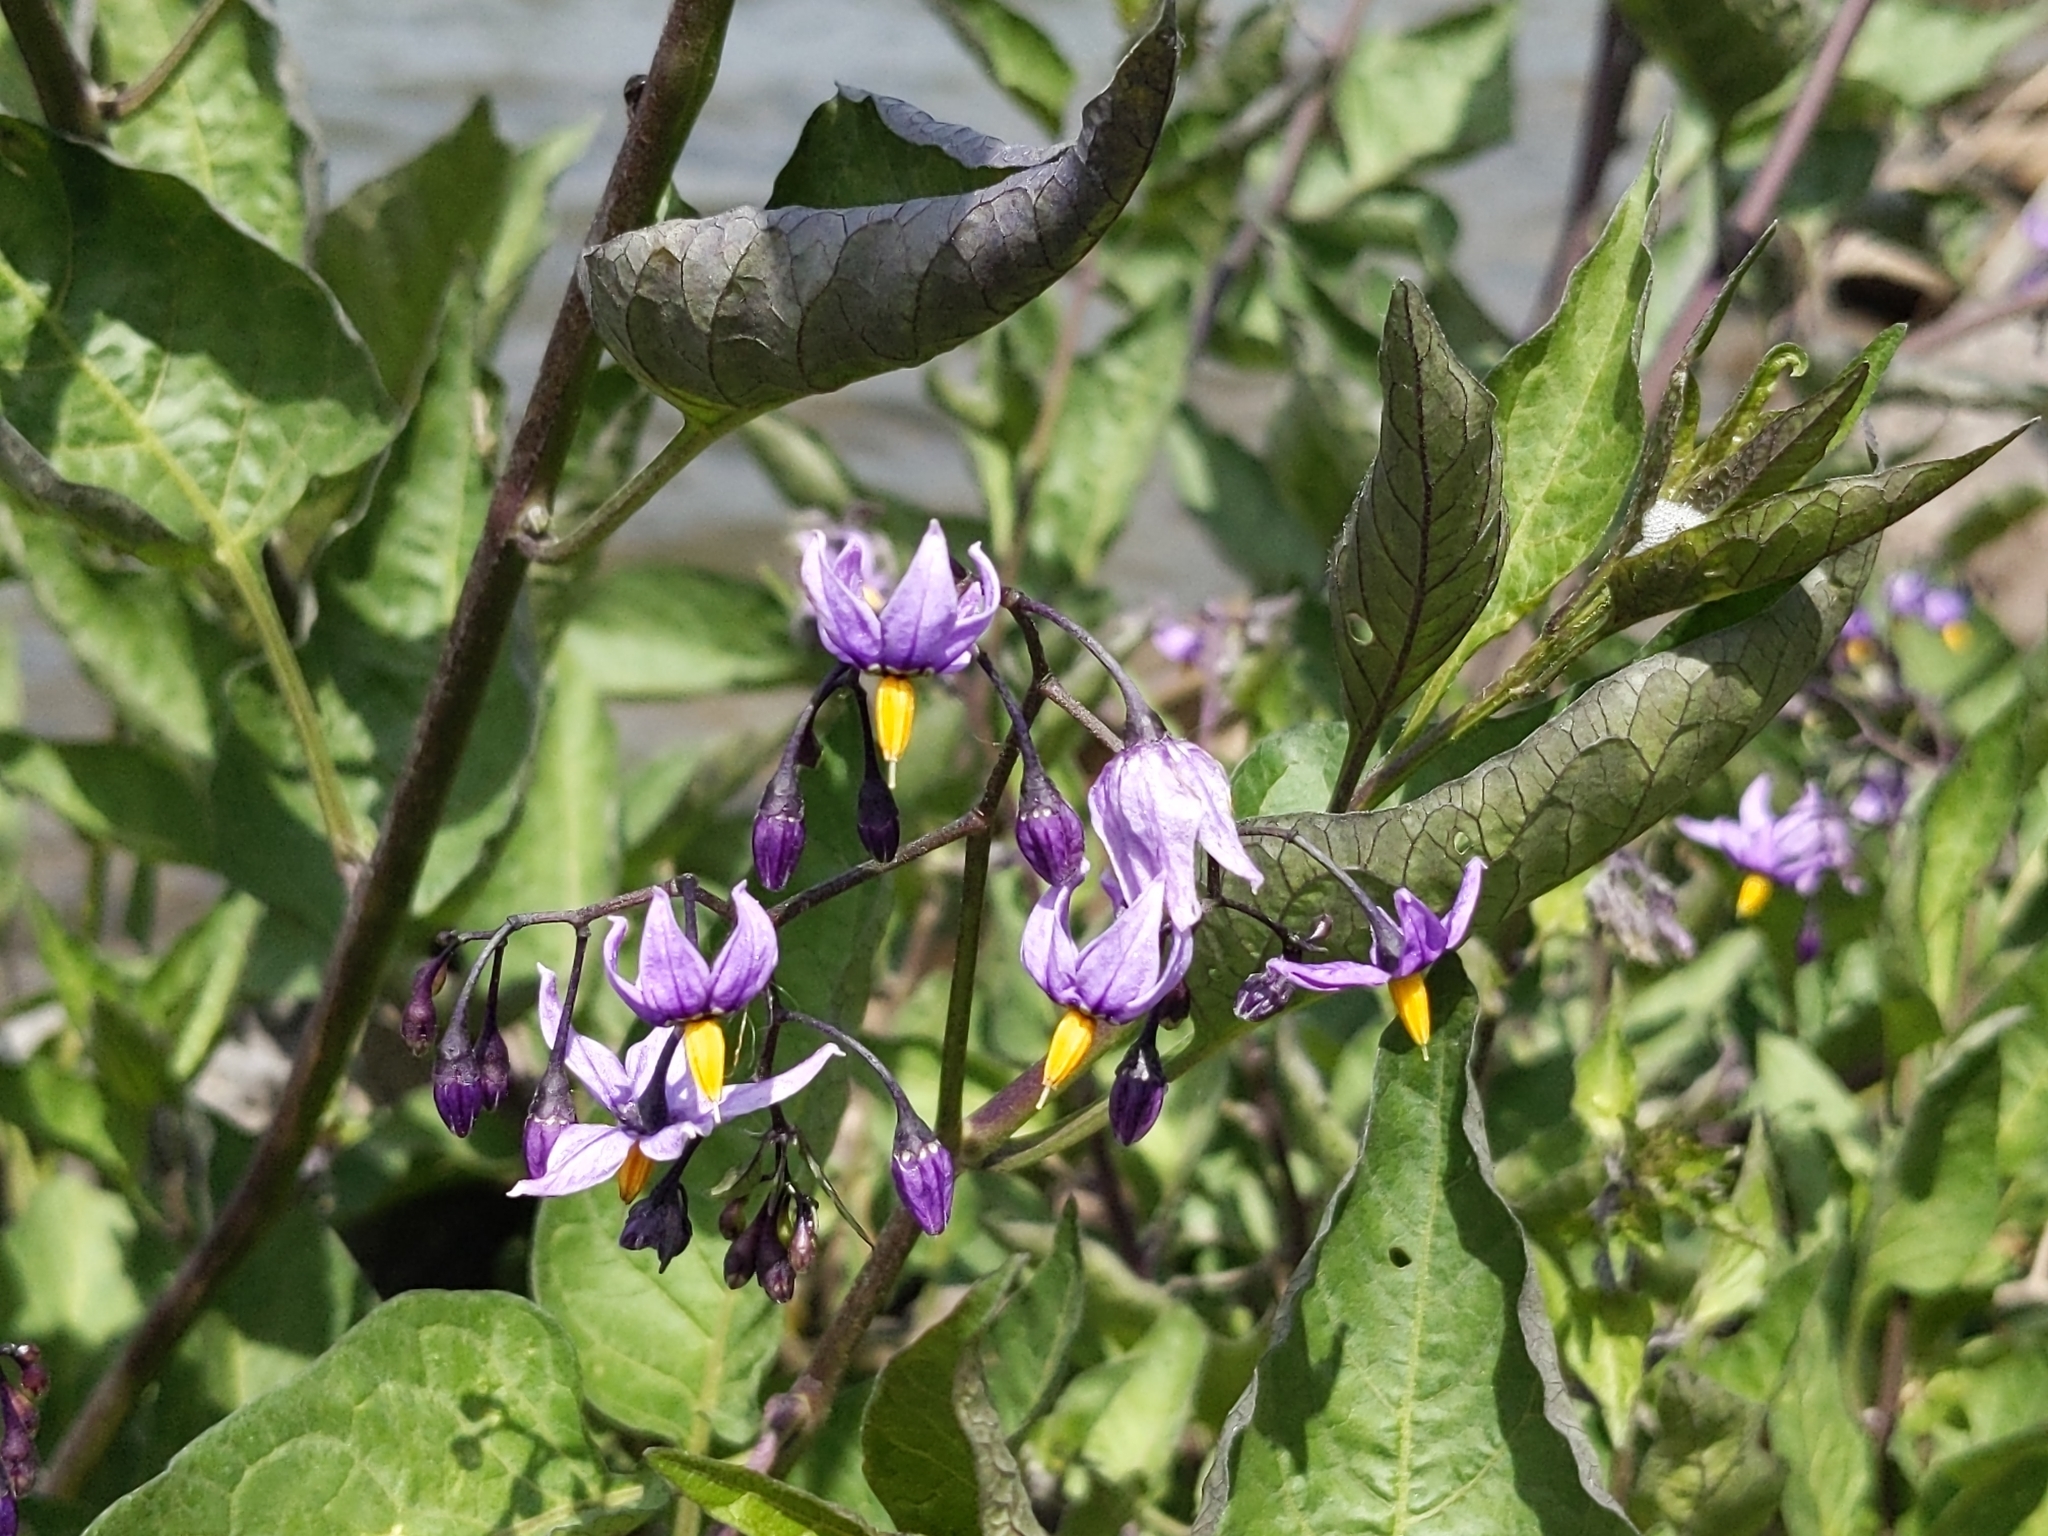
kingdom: Plantae
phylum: Tracheophyta
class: Magnoliopsida
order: Solanales
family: Solanaceae
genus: Solanum
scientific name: Solanum dulcamara
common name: Climbing nightshade
